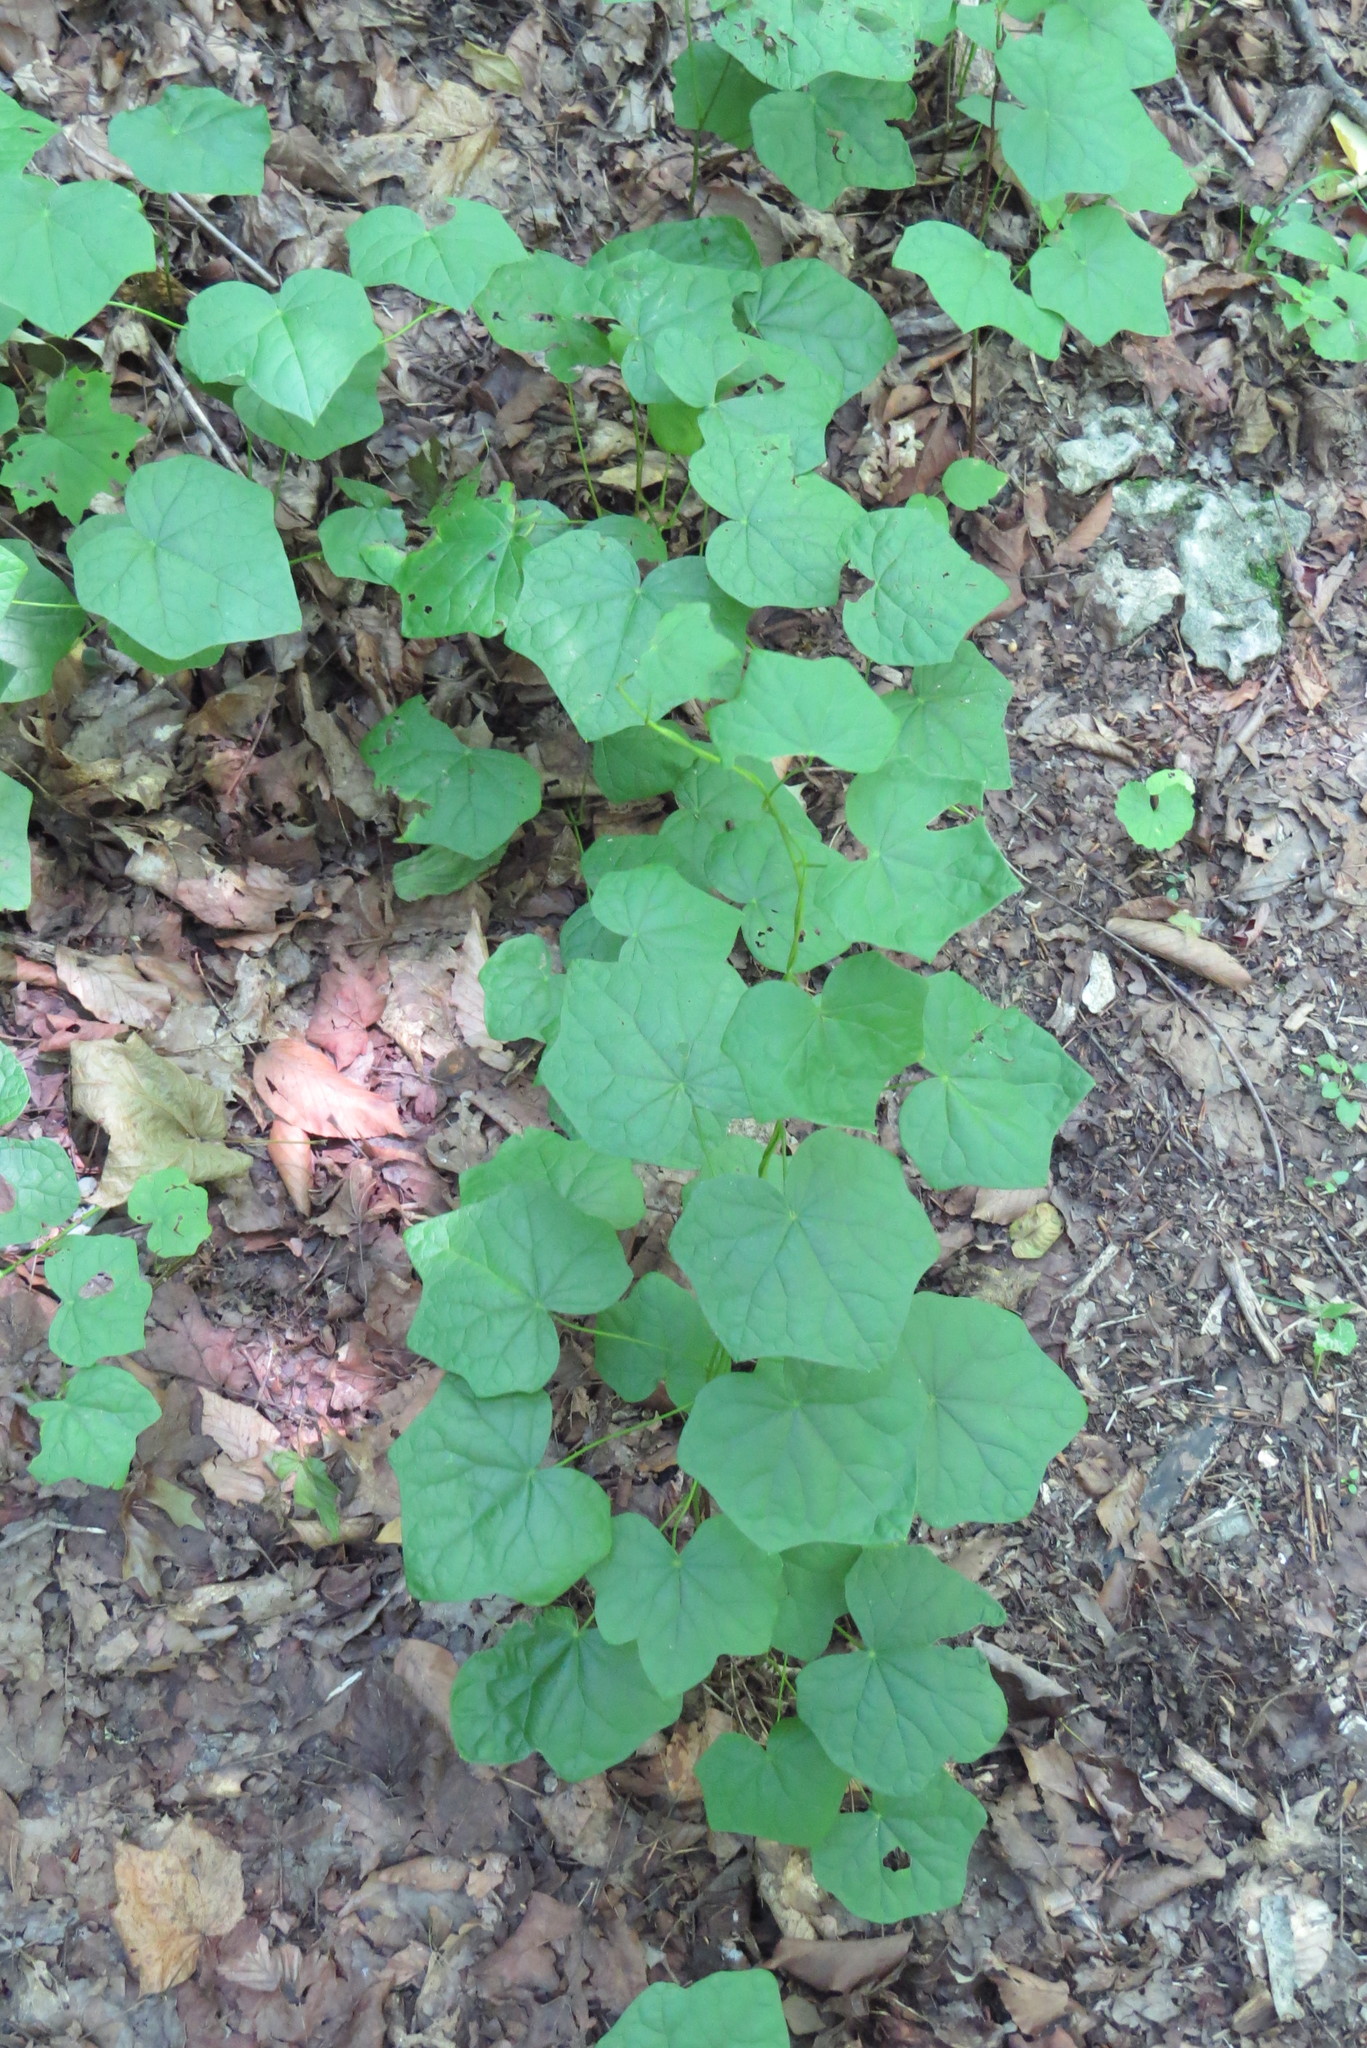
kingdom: Plantae
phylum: Tracheophyta
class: Magnoliopsida
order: Ranunculales
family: Menispermaceae
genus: Menispermum
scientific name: Menispermum canadense
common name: Moonseed
